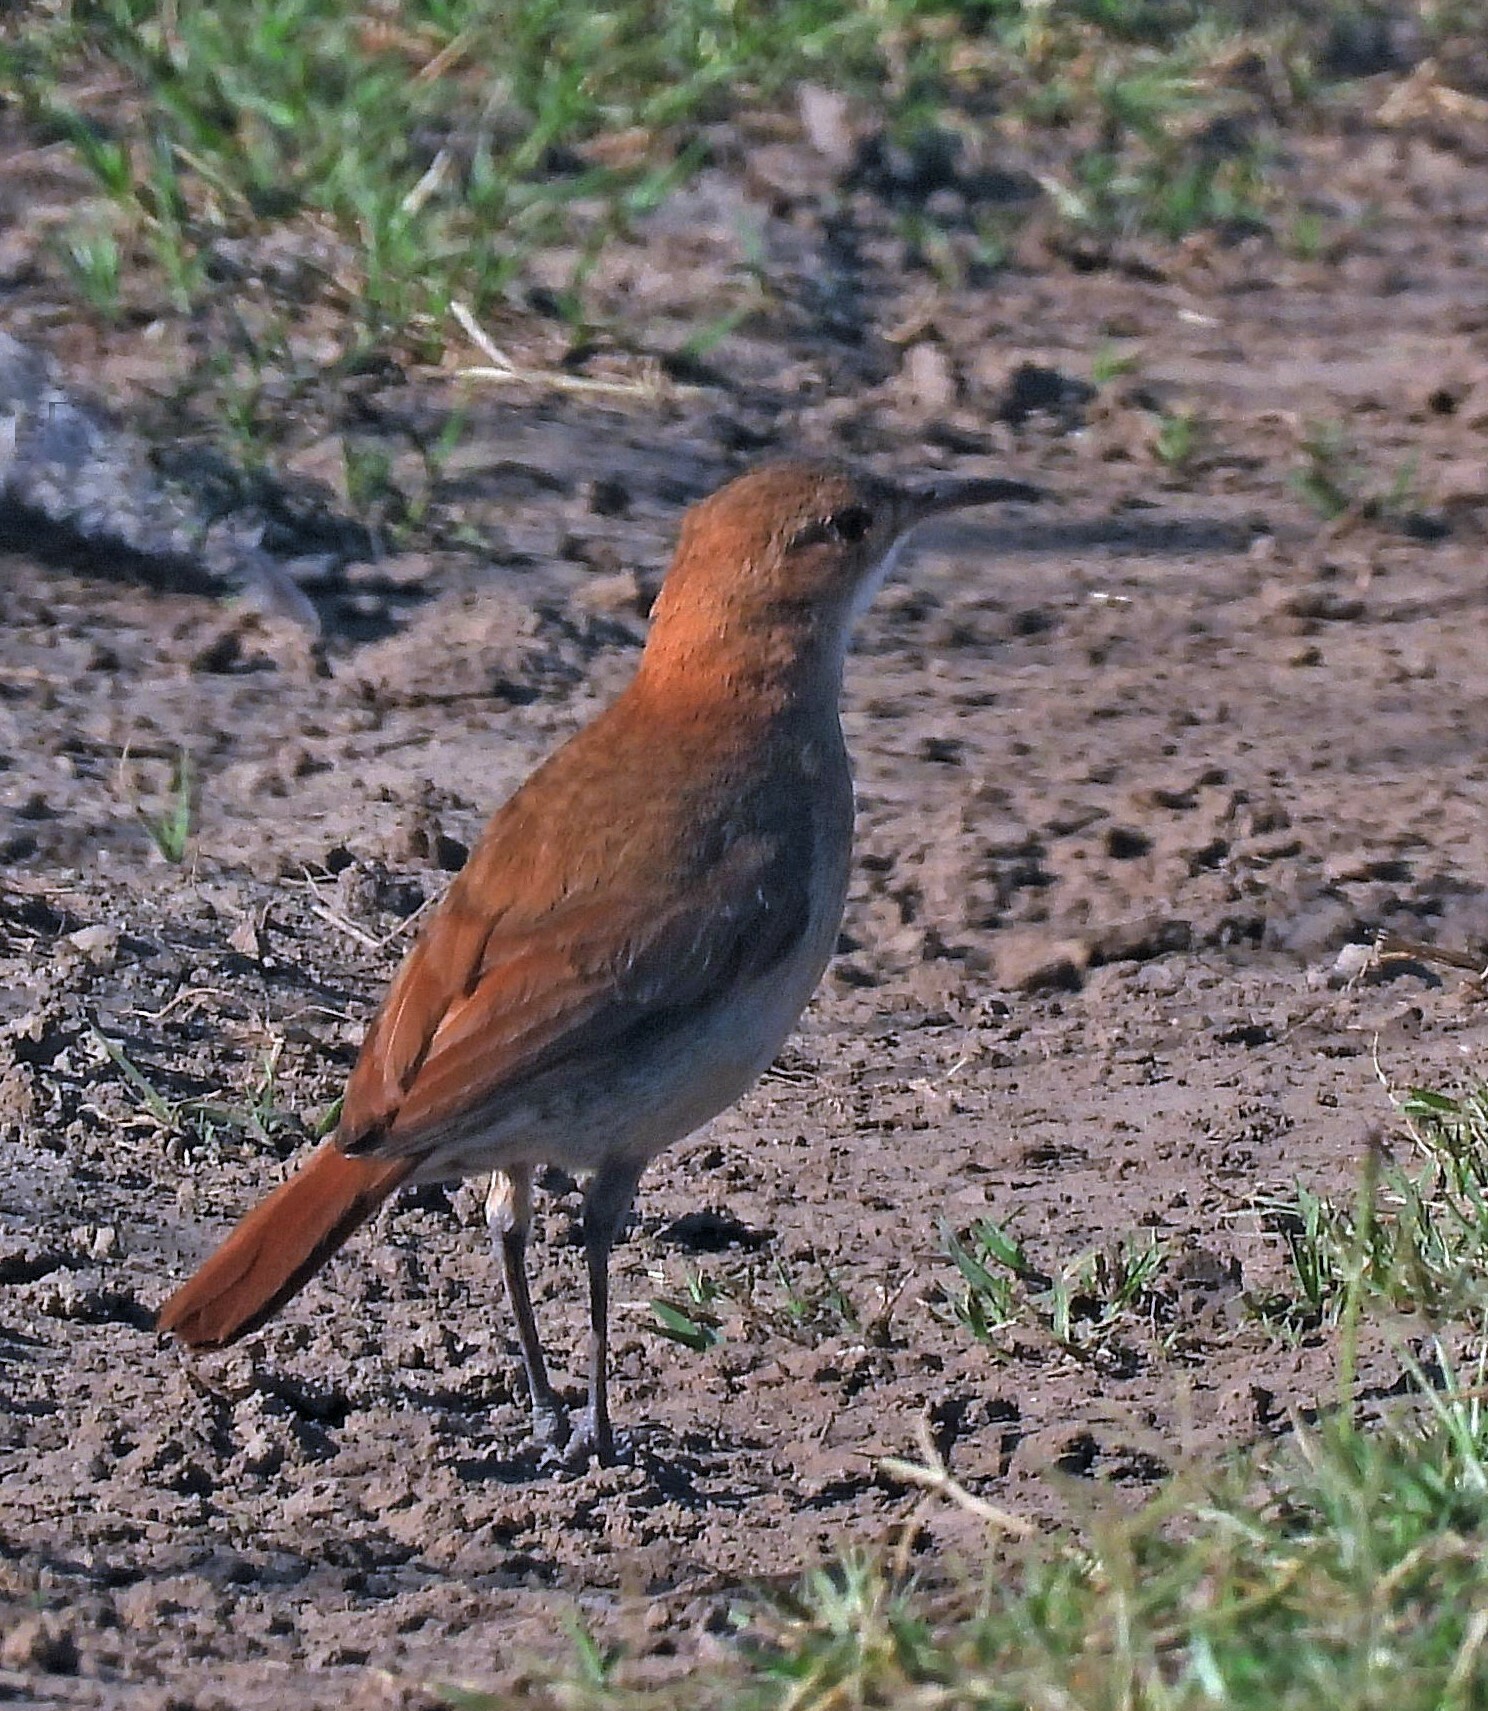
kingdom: Animalia
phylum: Chordata
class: Aves
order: Passeriformes
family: Furnariidae
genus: Furnarius
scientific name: Furnarius rufus
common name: Rufous hornero
